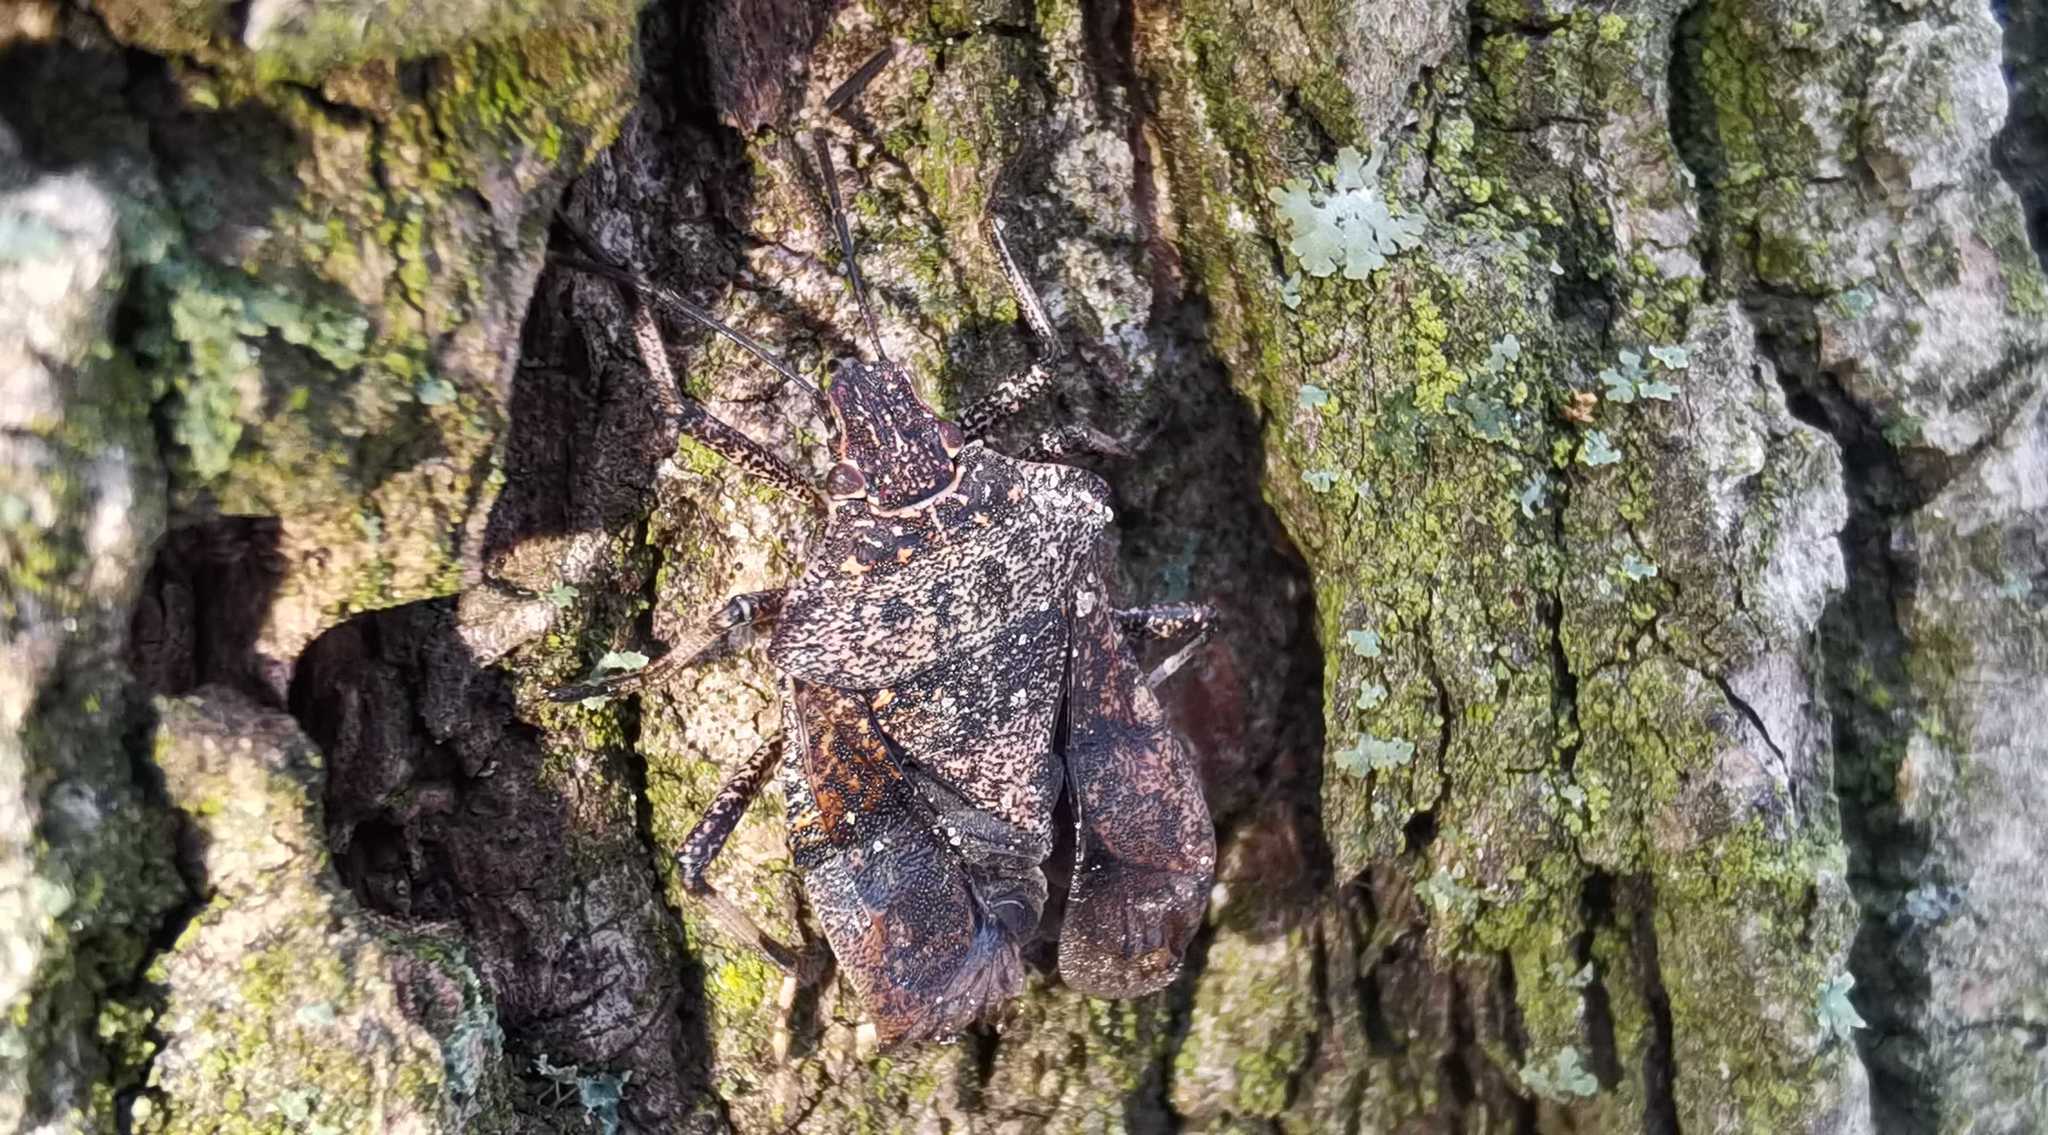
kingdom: Animalia
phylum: Arthropoda
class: Insecta
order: Hemiptera
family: Pentatomidae
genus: Halyomorpha
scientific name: Halyomorpha halys
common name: Brown marmorated stink bug
